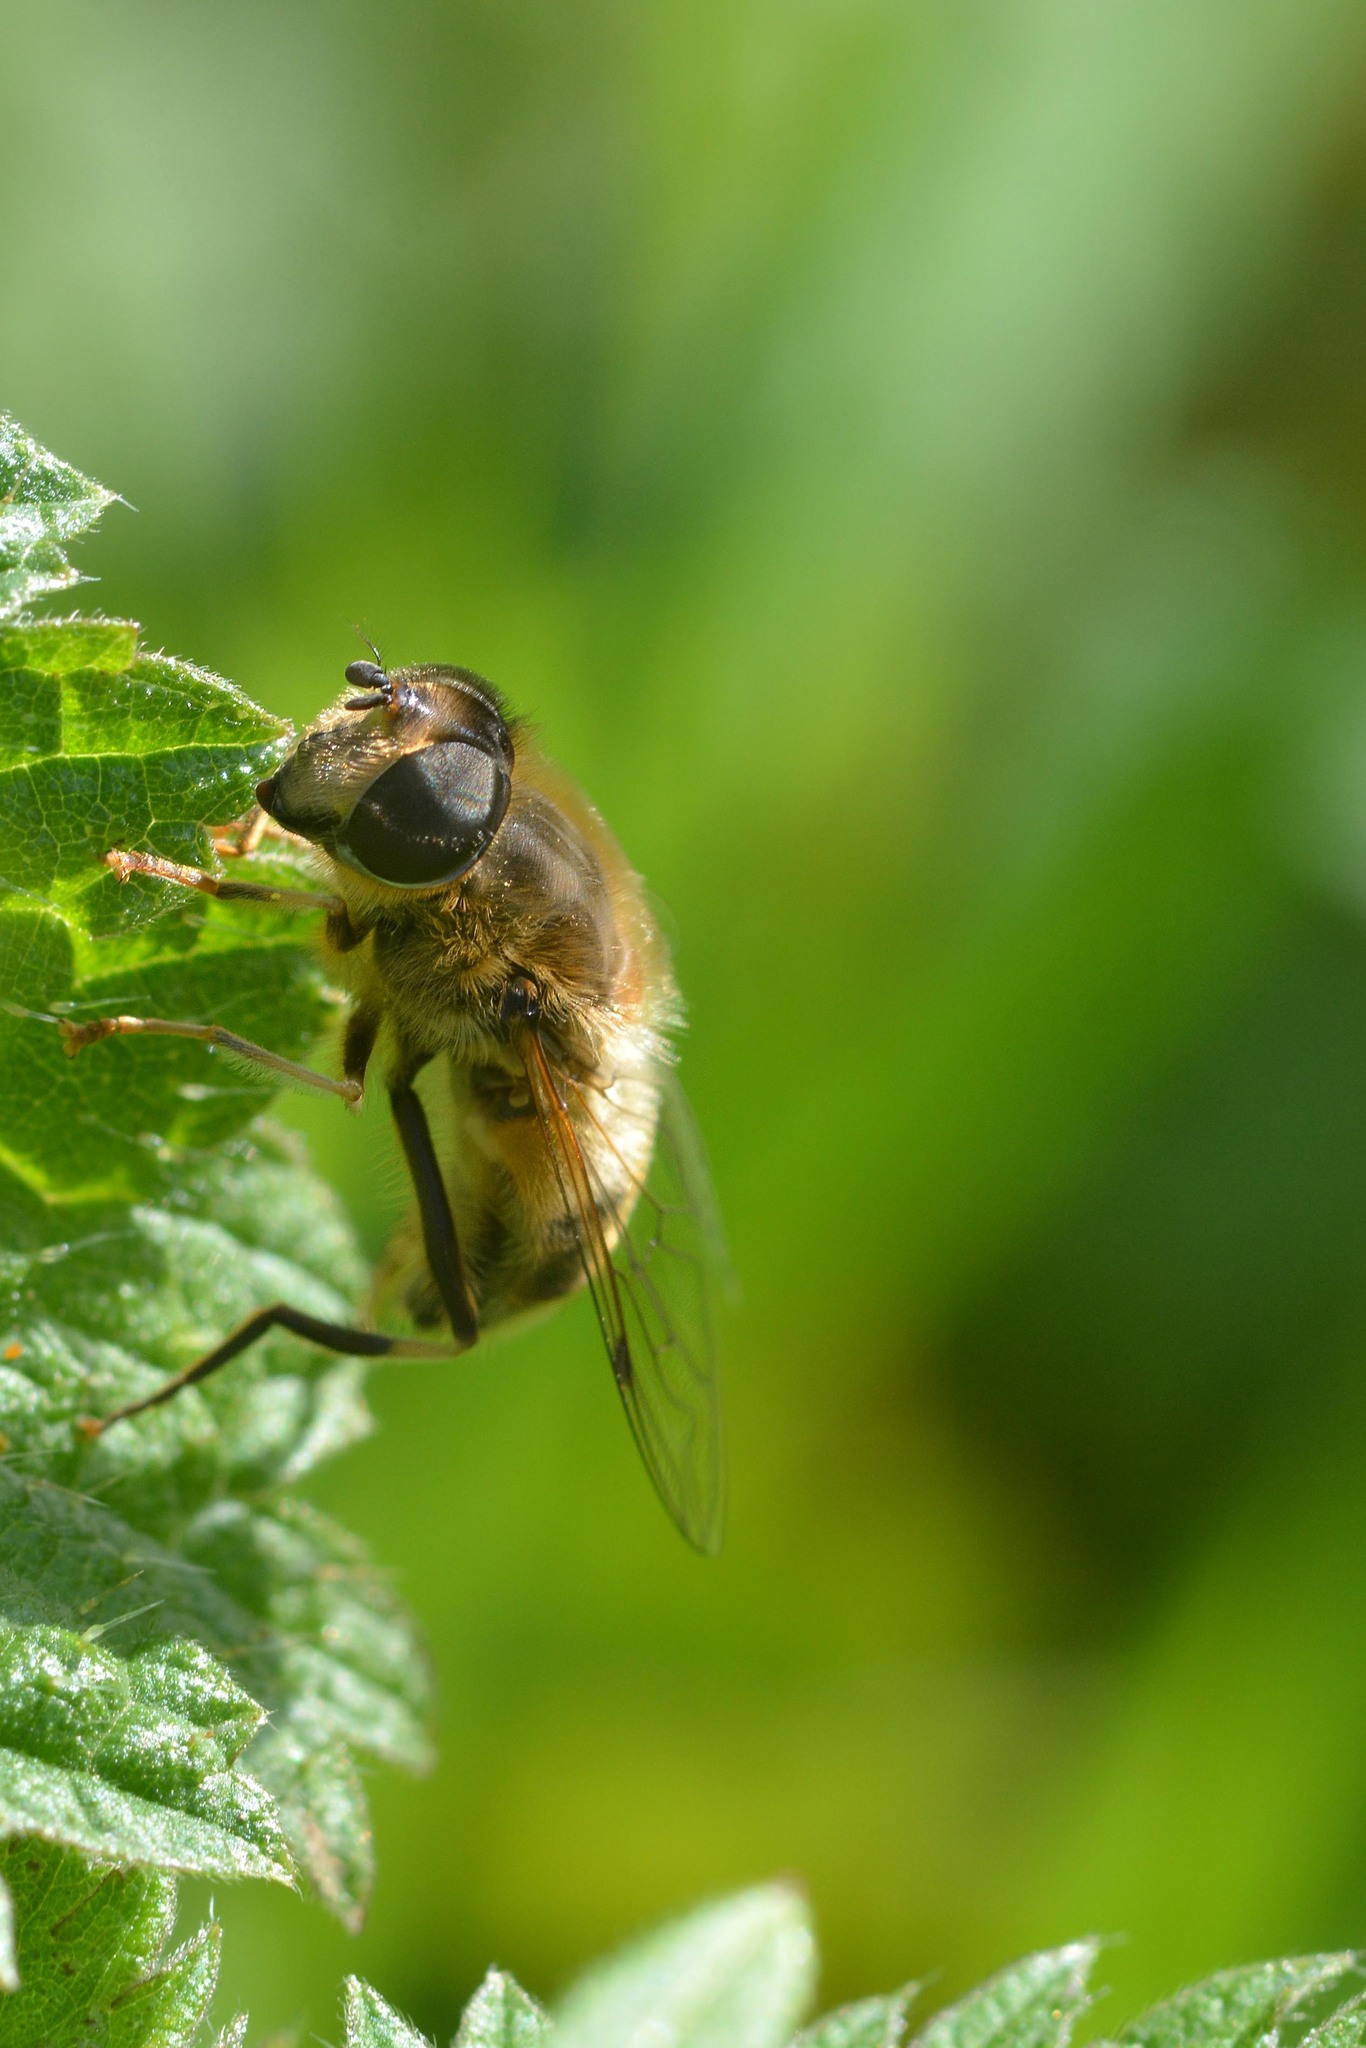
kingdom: Animalia
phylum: Arthropoda
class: Insecta
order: Diptera
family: Syrphidae
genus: Eristalis
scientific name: Eristalis pertinax
